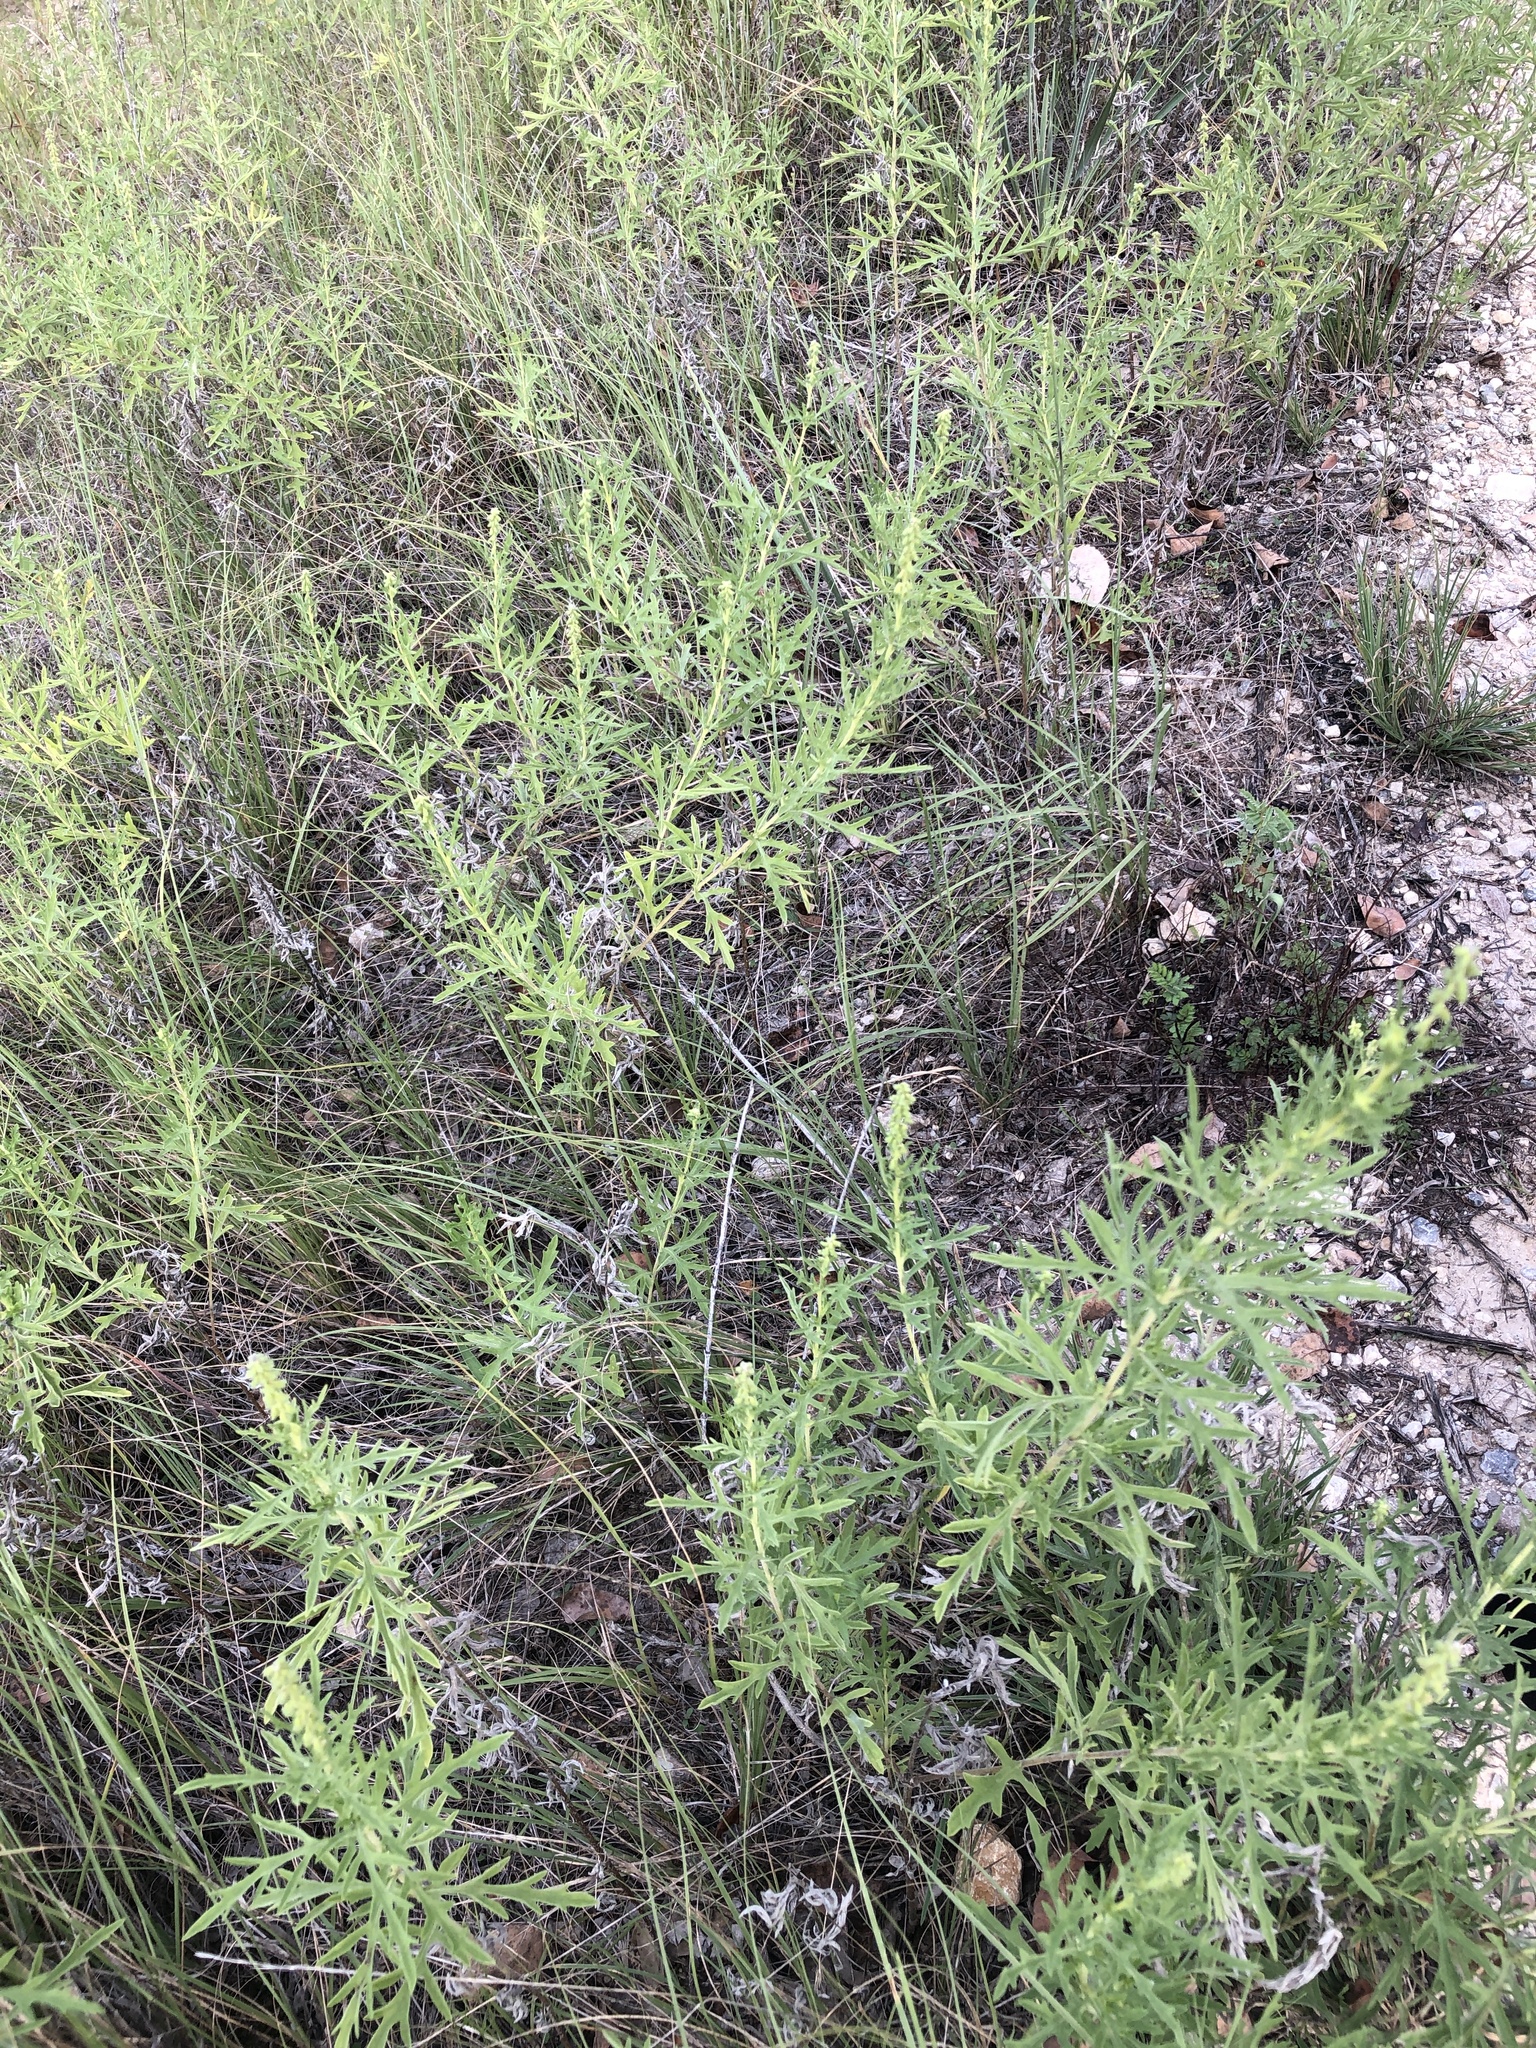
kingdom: Plantae
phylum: Tracheophyta
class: Magnoliopsida
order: Asterales
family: Asteraceae
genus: Ambrosia
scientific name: Ambrosia psilostachya
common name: Perennial ragweed
